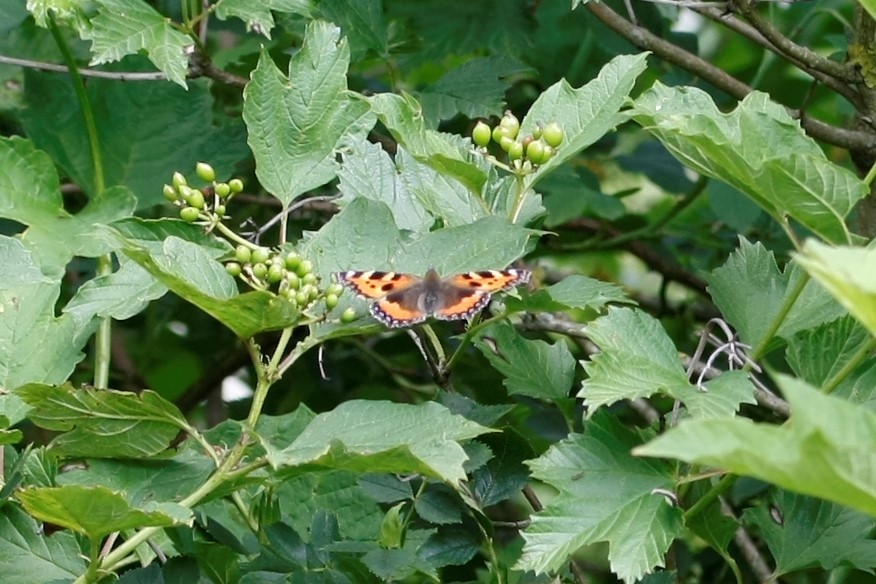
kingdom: Animalia
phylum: Arthropoda
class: Insecta
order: Lepidoptera
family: Nymphalidae
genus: Aglais
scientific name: Aglais urticae
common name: Small tortoiseshell
